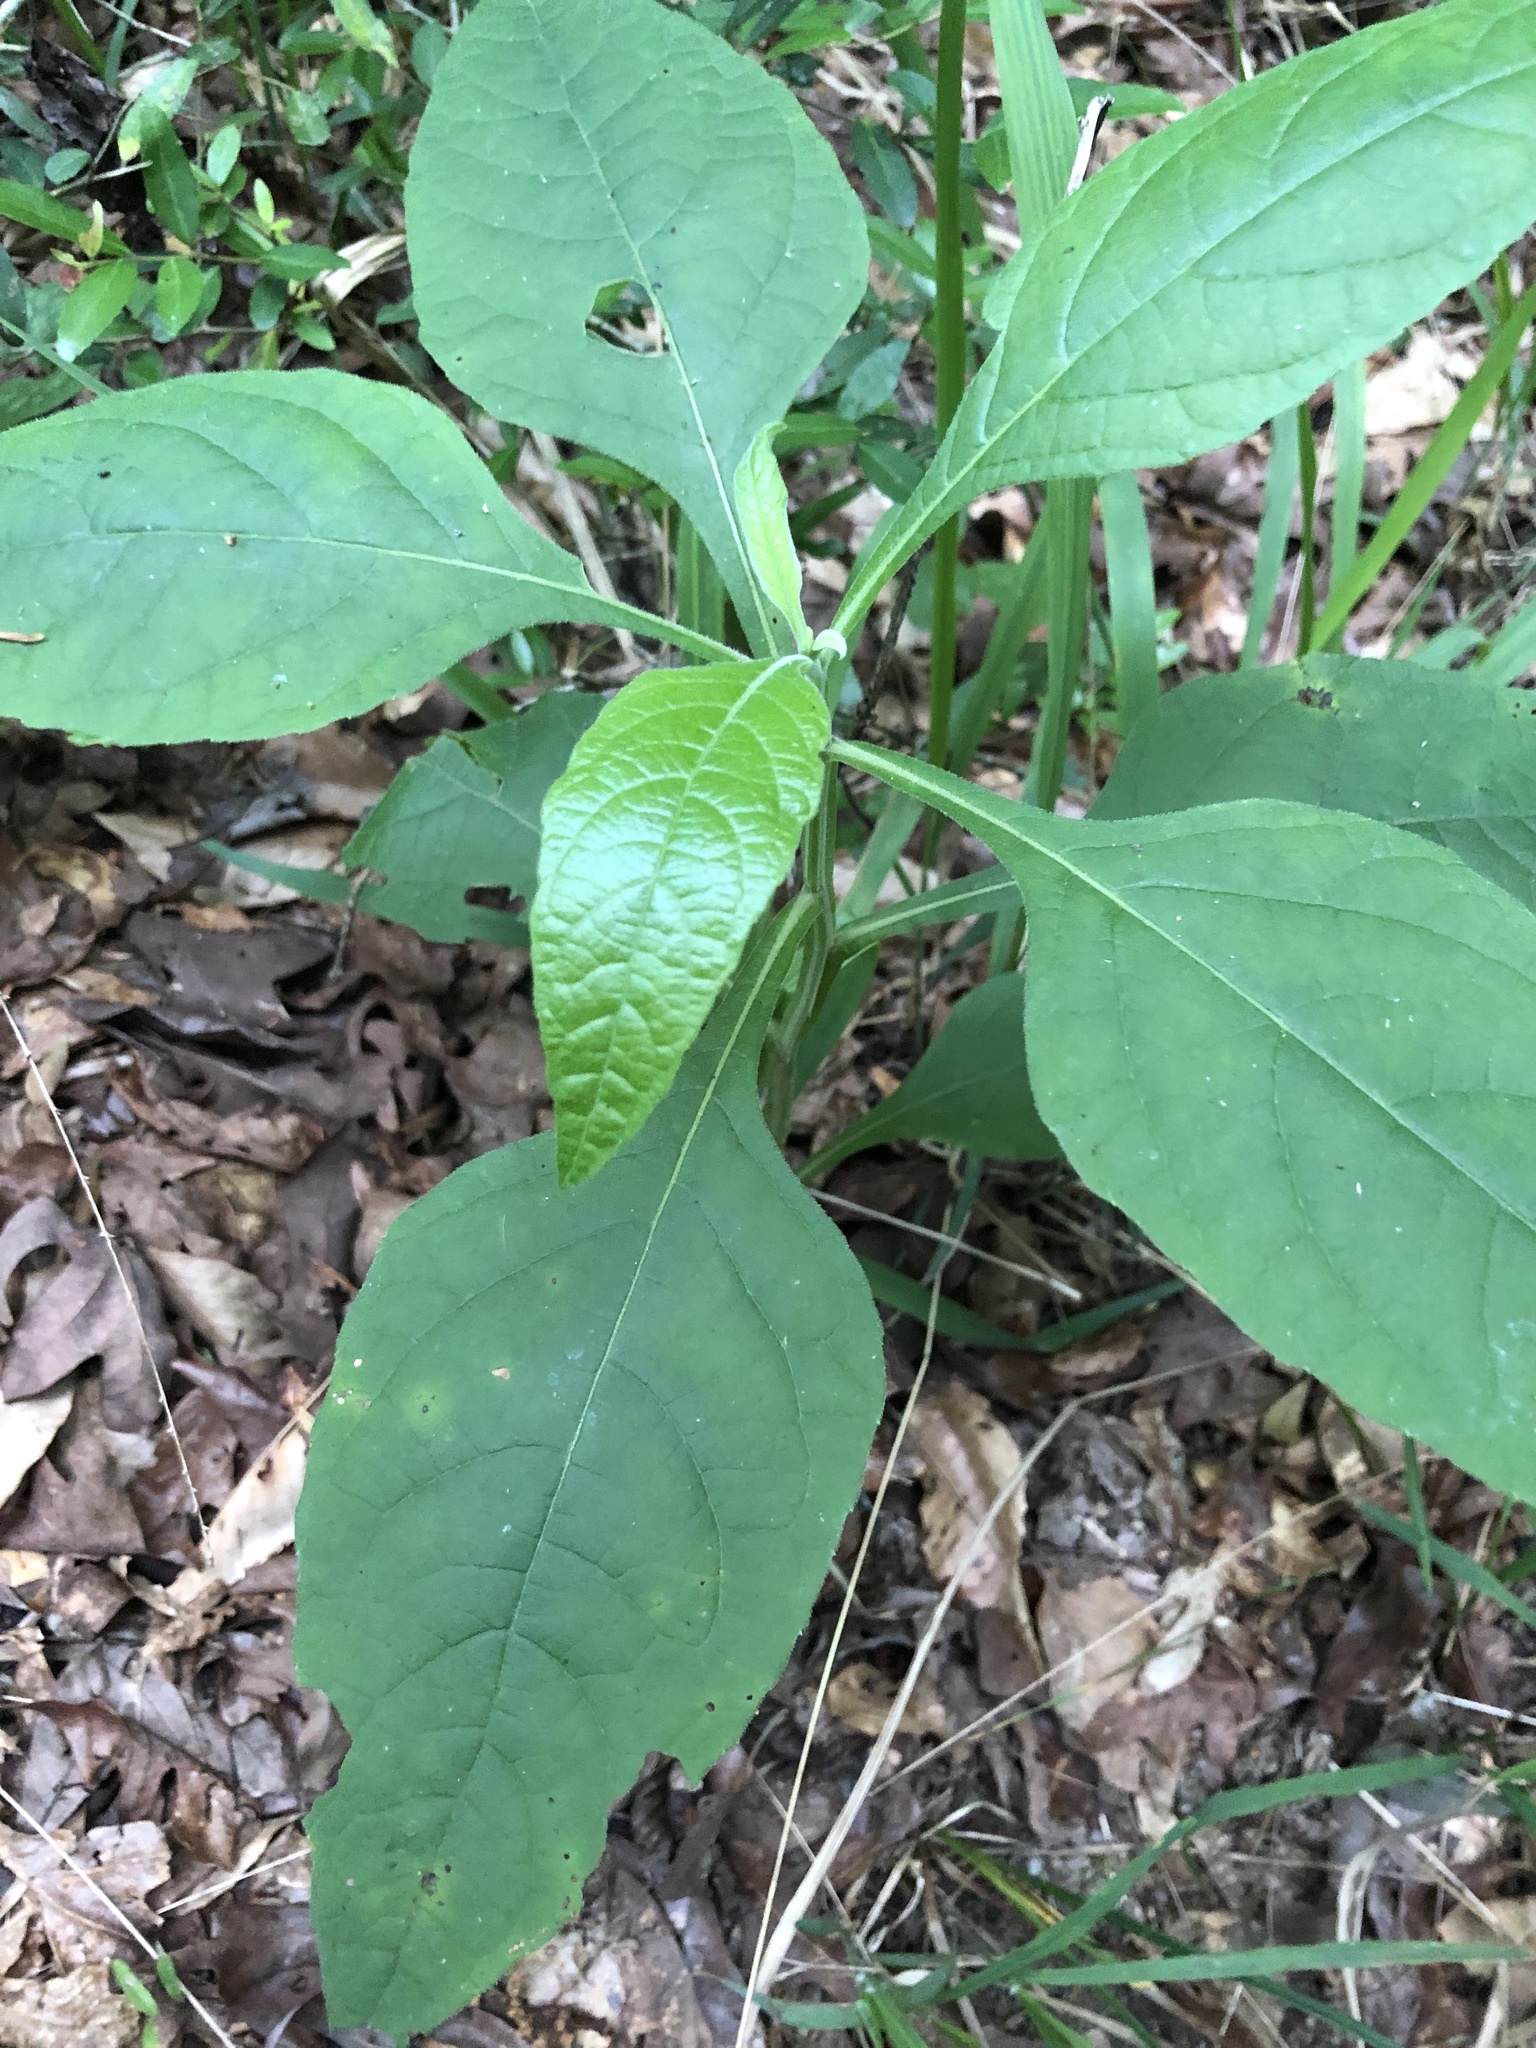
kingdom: Plantae
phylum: Tracheophyta
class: Magnoliopsida
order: Asterales
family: Asteraceae
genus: Verbesina
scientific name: Verbesina virginica
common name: Frostweed
